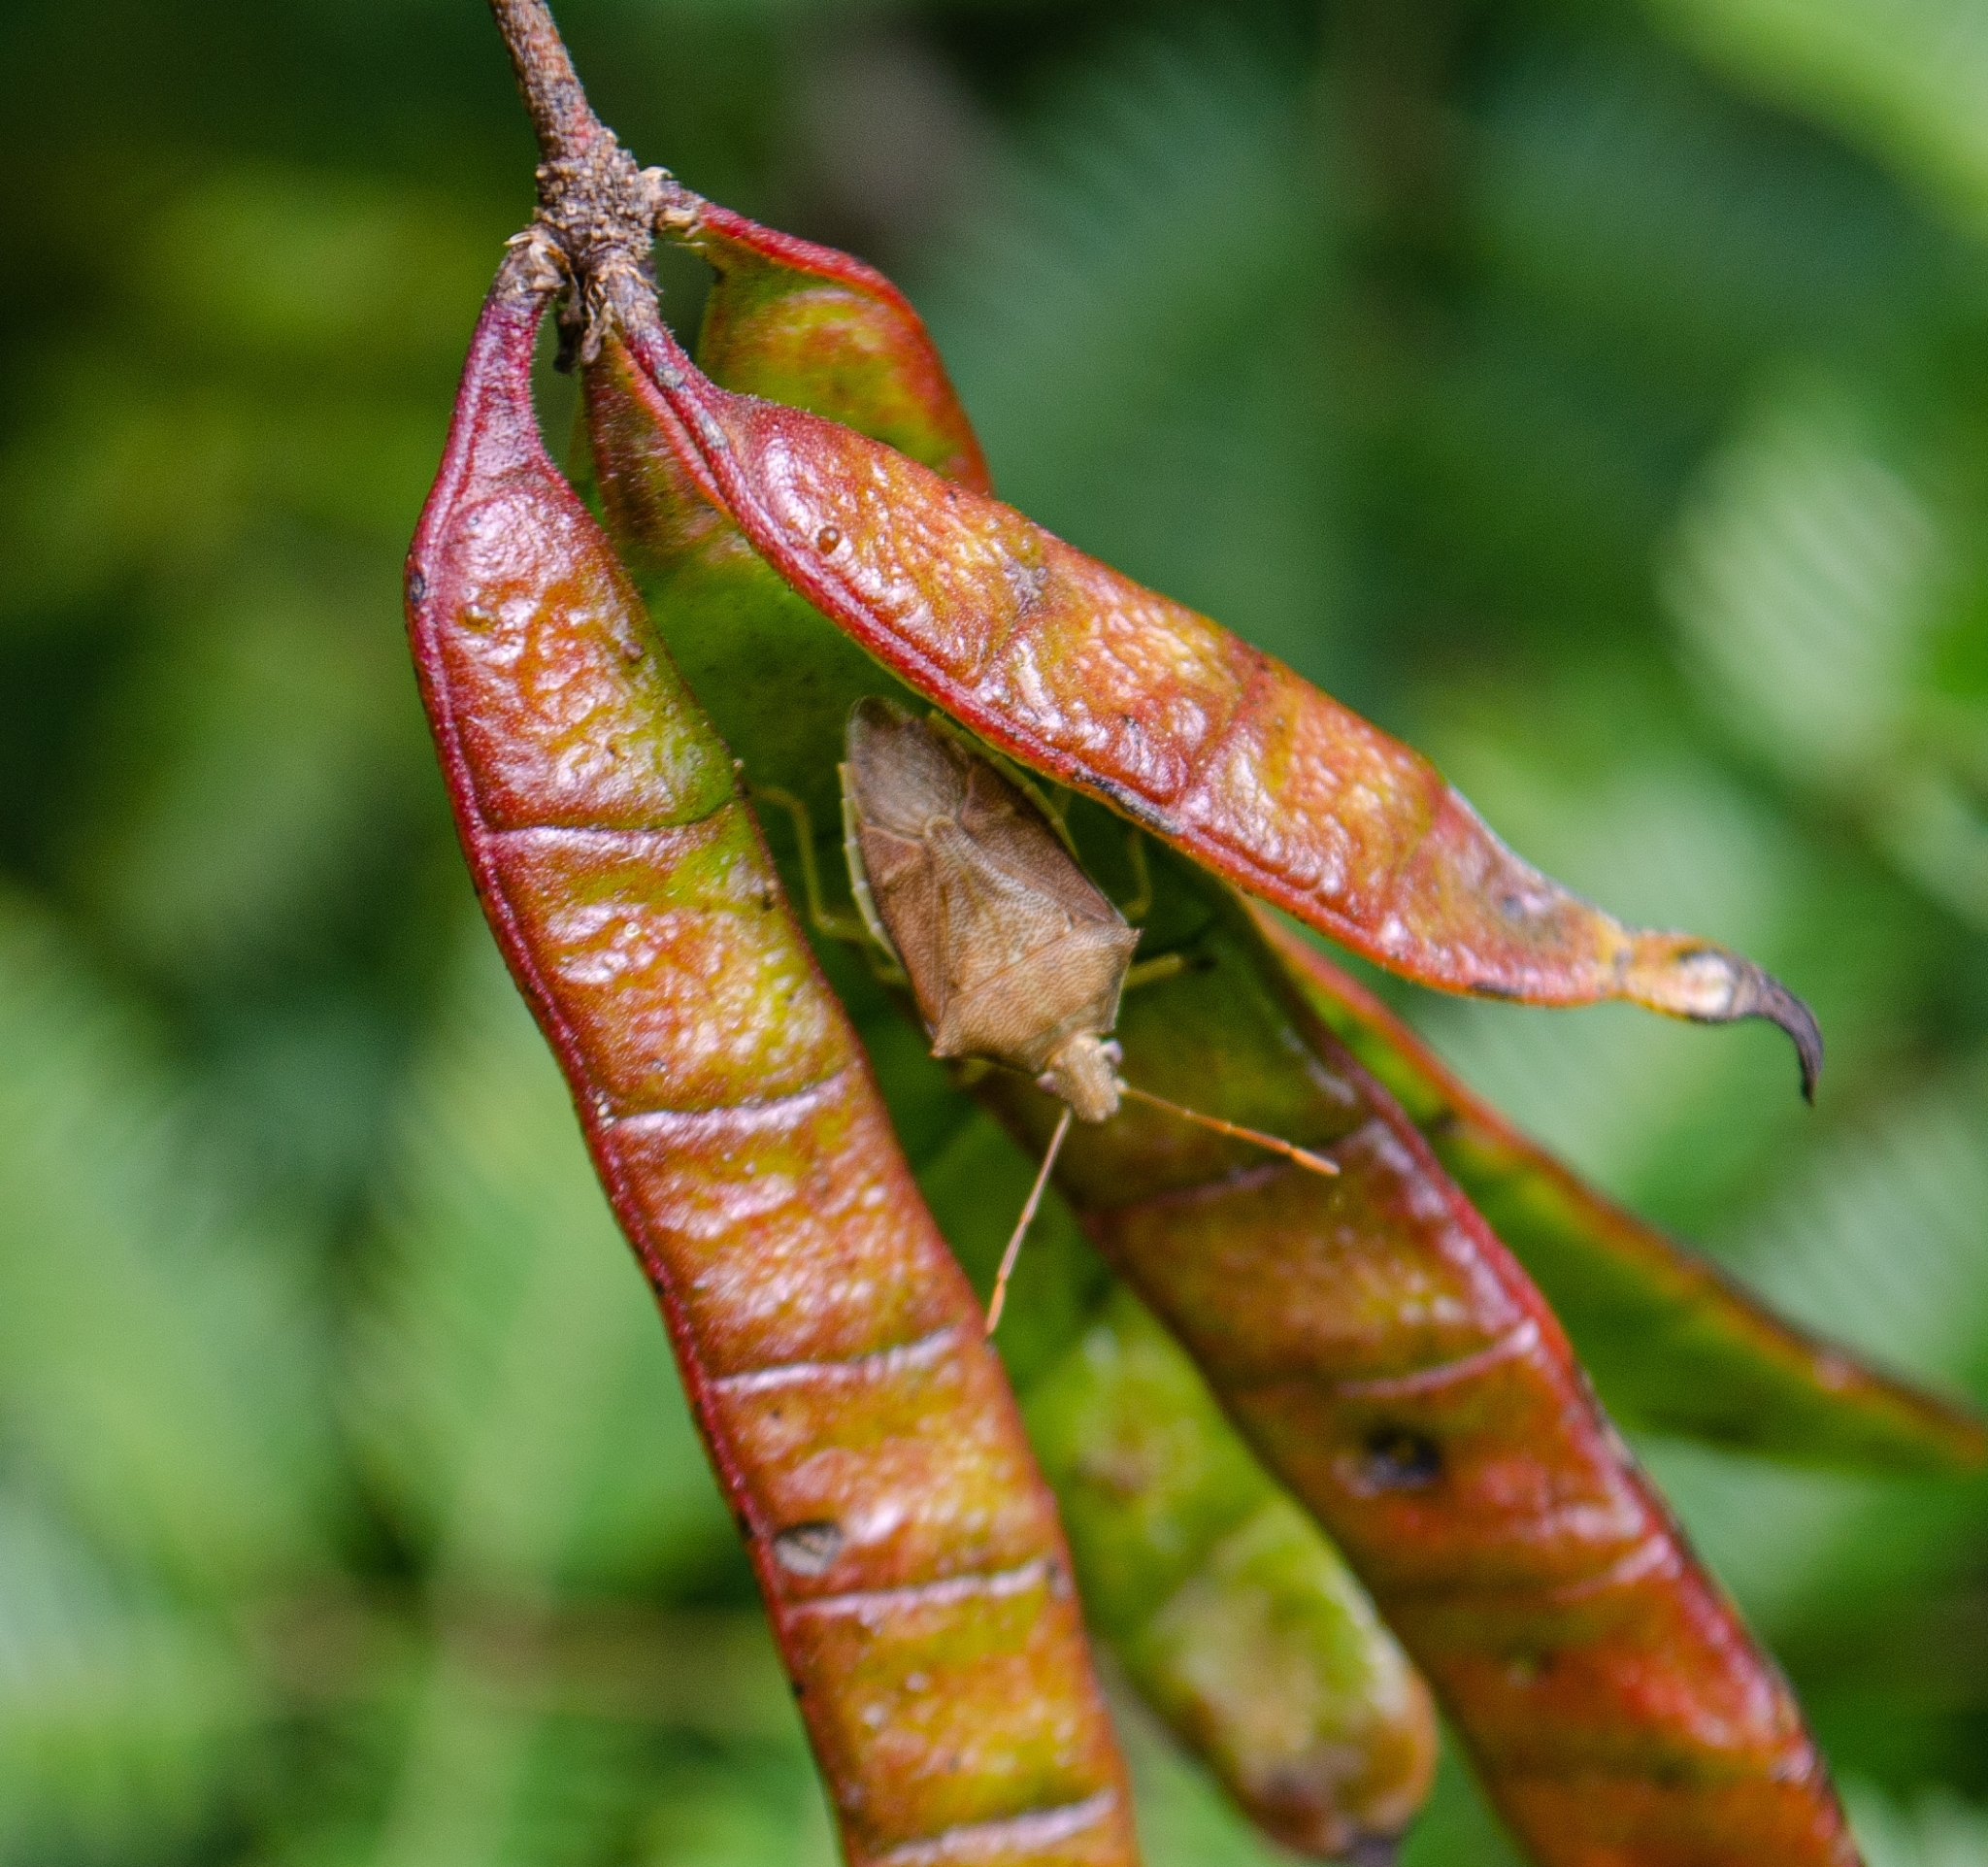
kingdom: Animalia
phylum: Arthropoda
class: Insecta
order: Hemiptera
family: Pentatomidae
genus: Supputius
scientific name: Supputius
